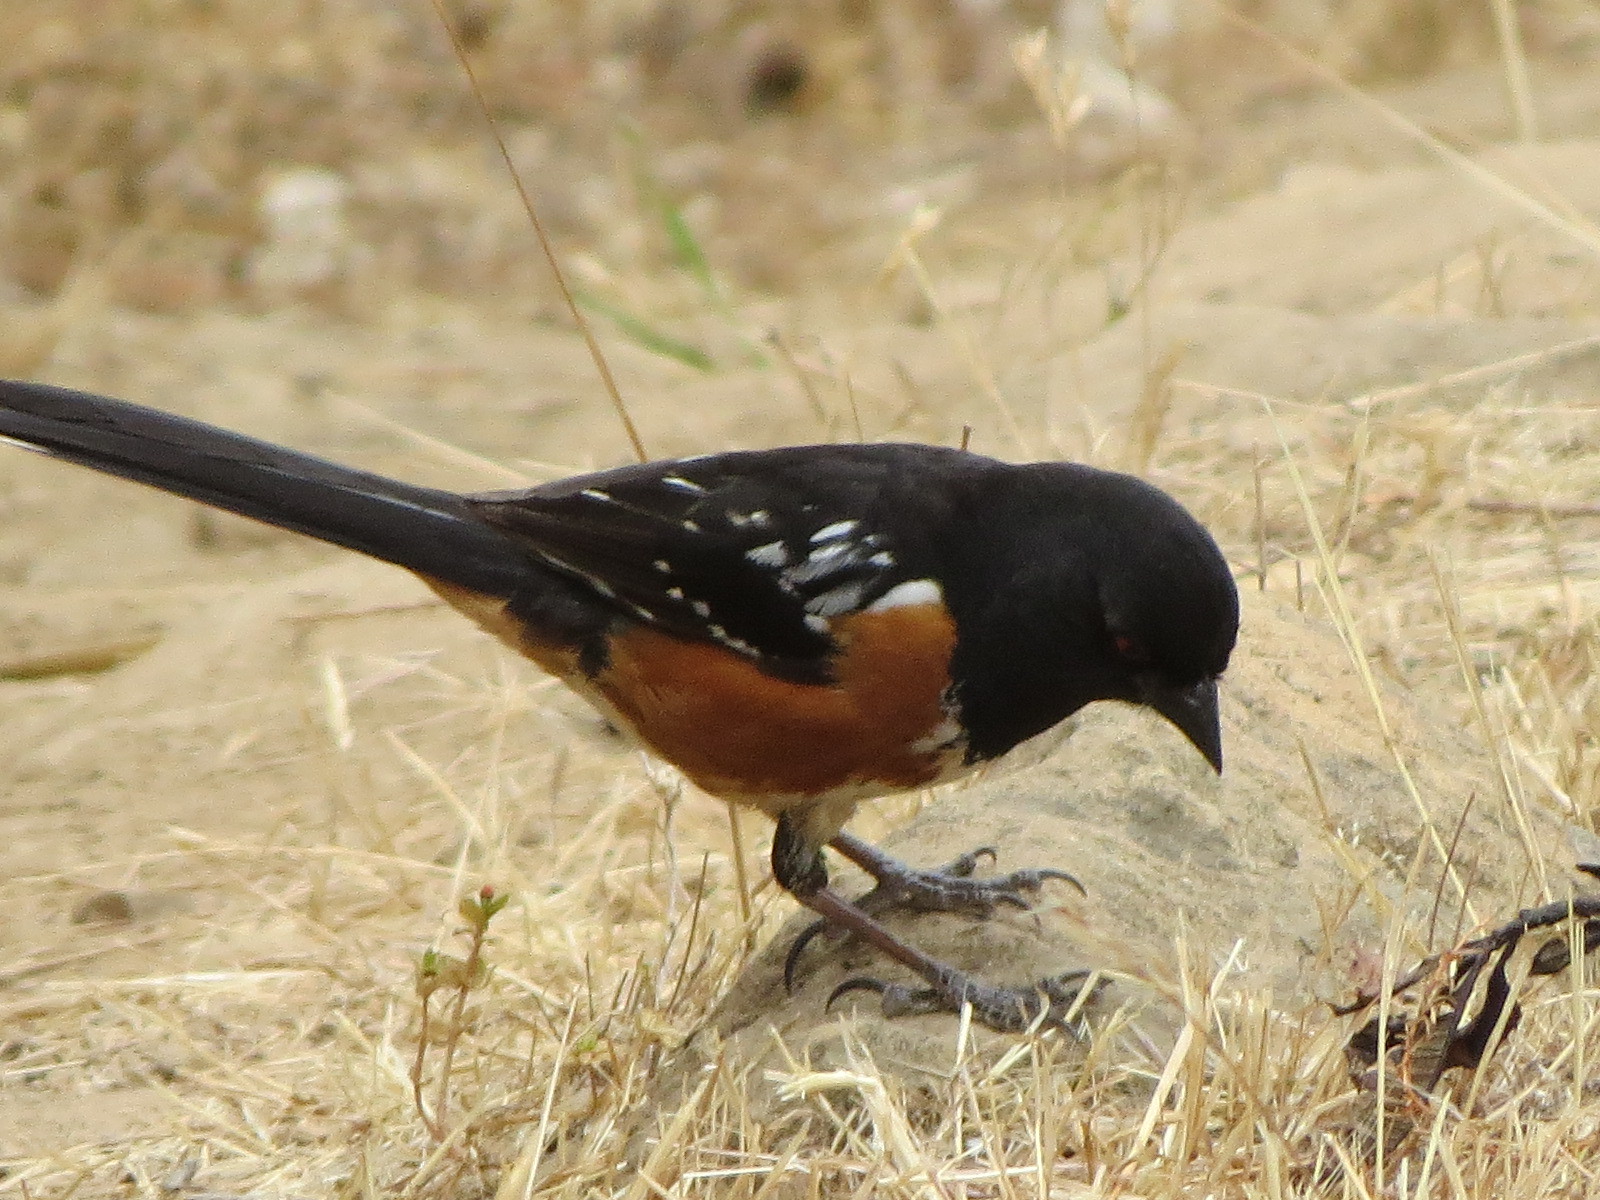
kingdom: Animalia
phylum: Chordata
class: Aves
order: Passeriformes
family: Passerellidae
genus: Pipilo
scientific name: Pipilo maculatus
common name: Spotted towhee
